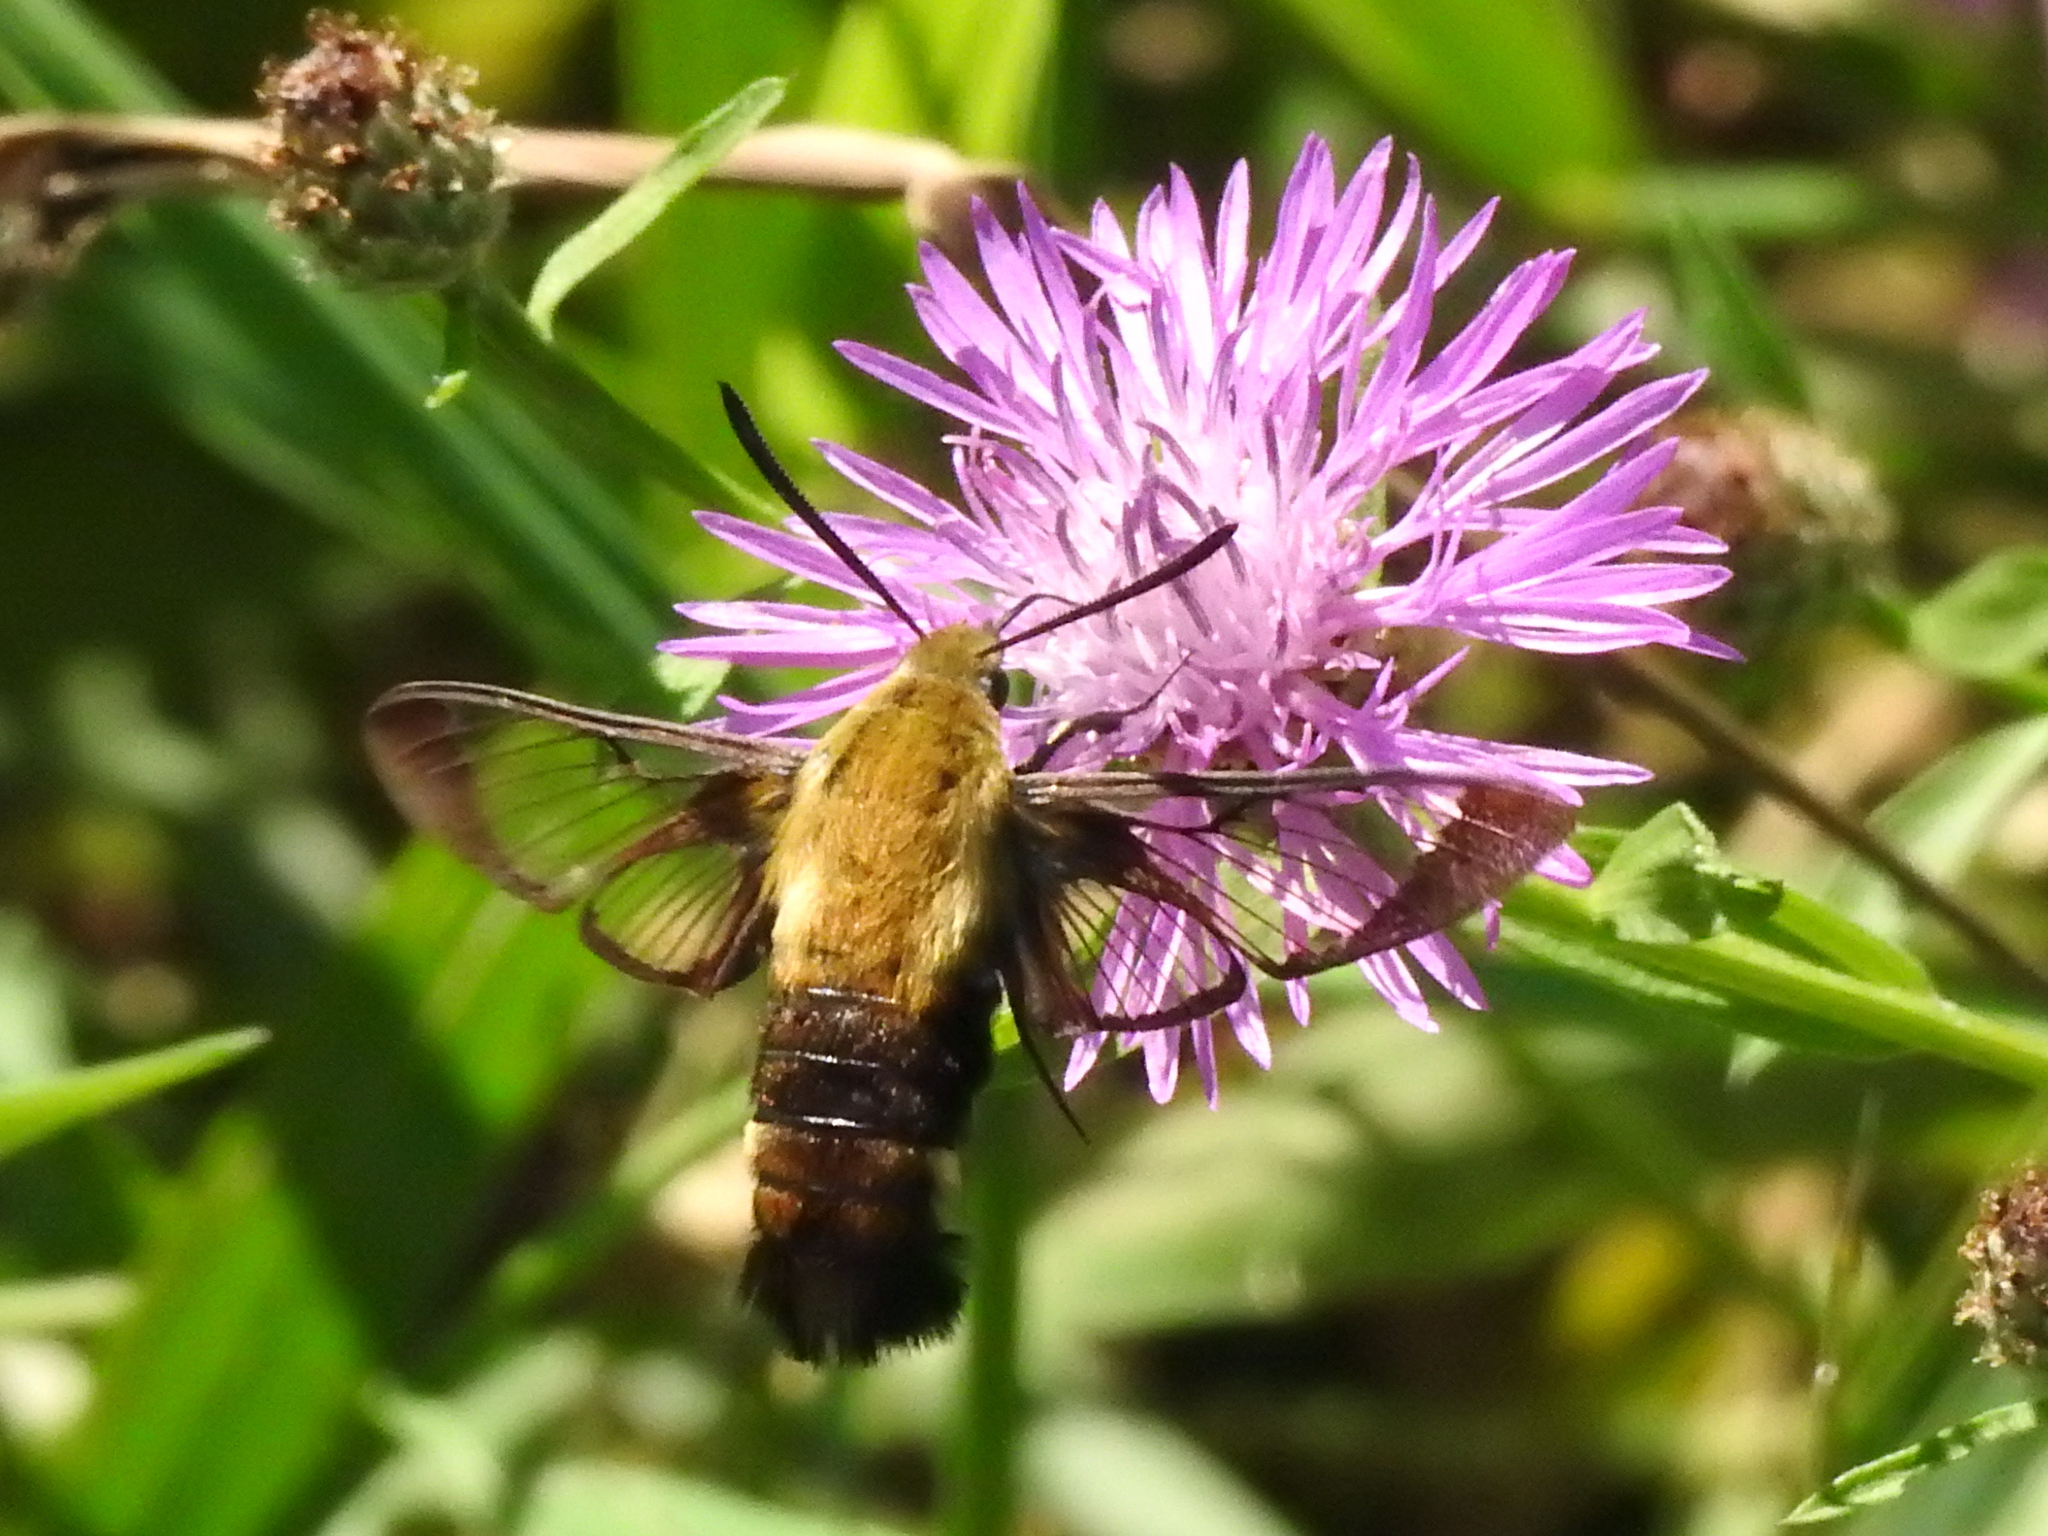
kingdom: Animalia
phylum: Arthropoda
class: Insecta
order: Lepidoptera
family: Sphingidae
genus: Hemaris
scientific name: Hemaris diffinis
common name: Bumblebee moth
